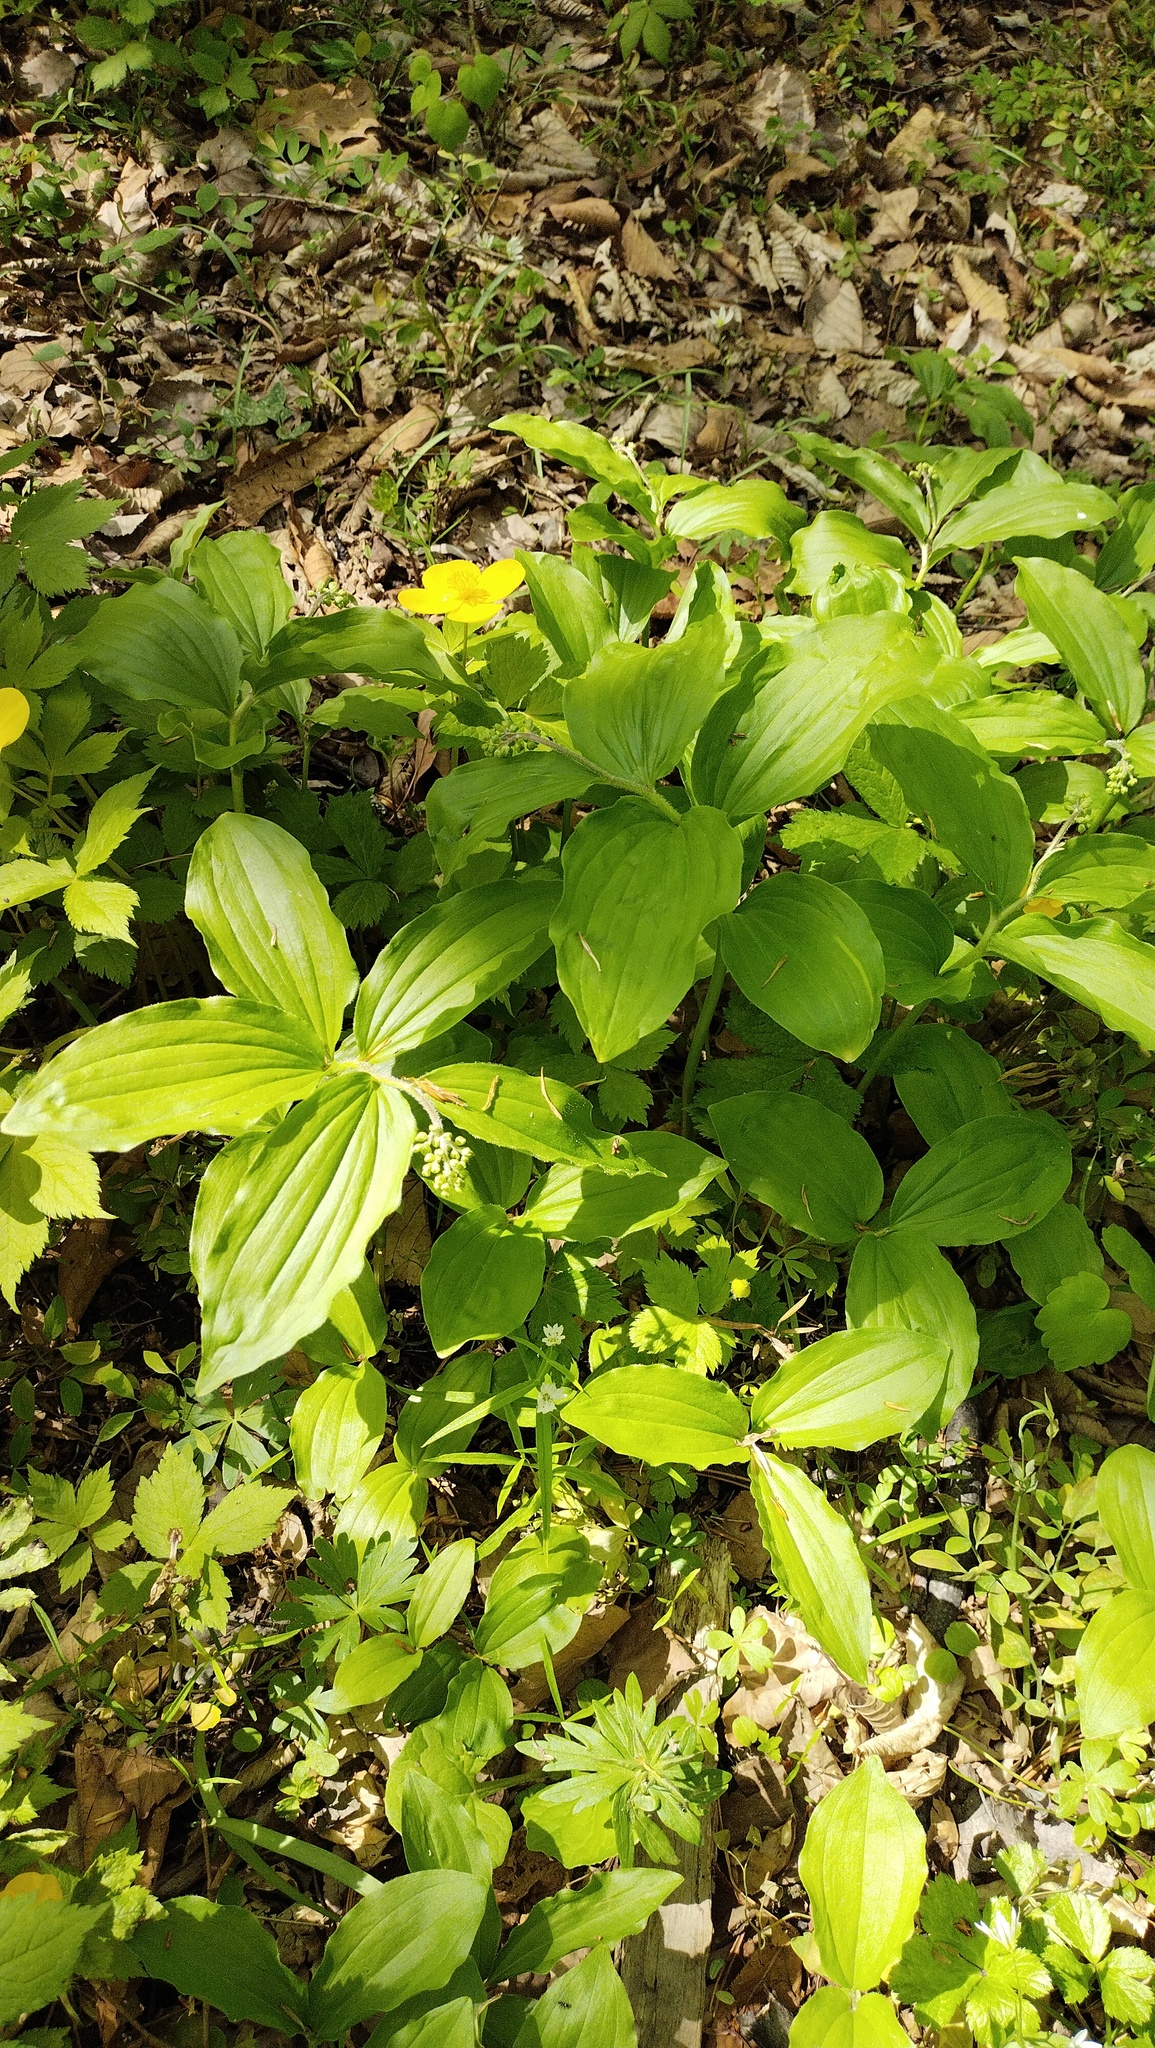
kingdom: Plantae
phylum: Tracheophyta
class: Liliopsida
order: Asparagales
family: Asparagaceae
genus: Maianthemum
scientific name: Maianthemum japonicum
